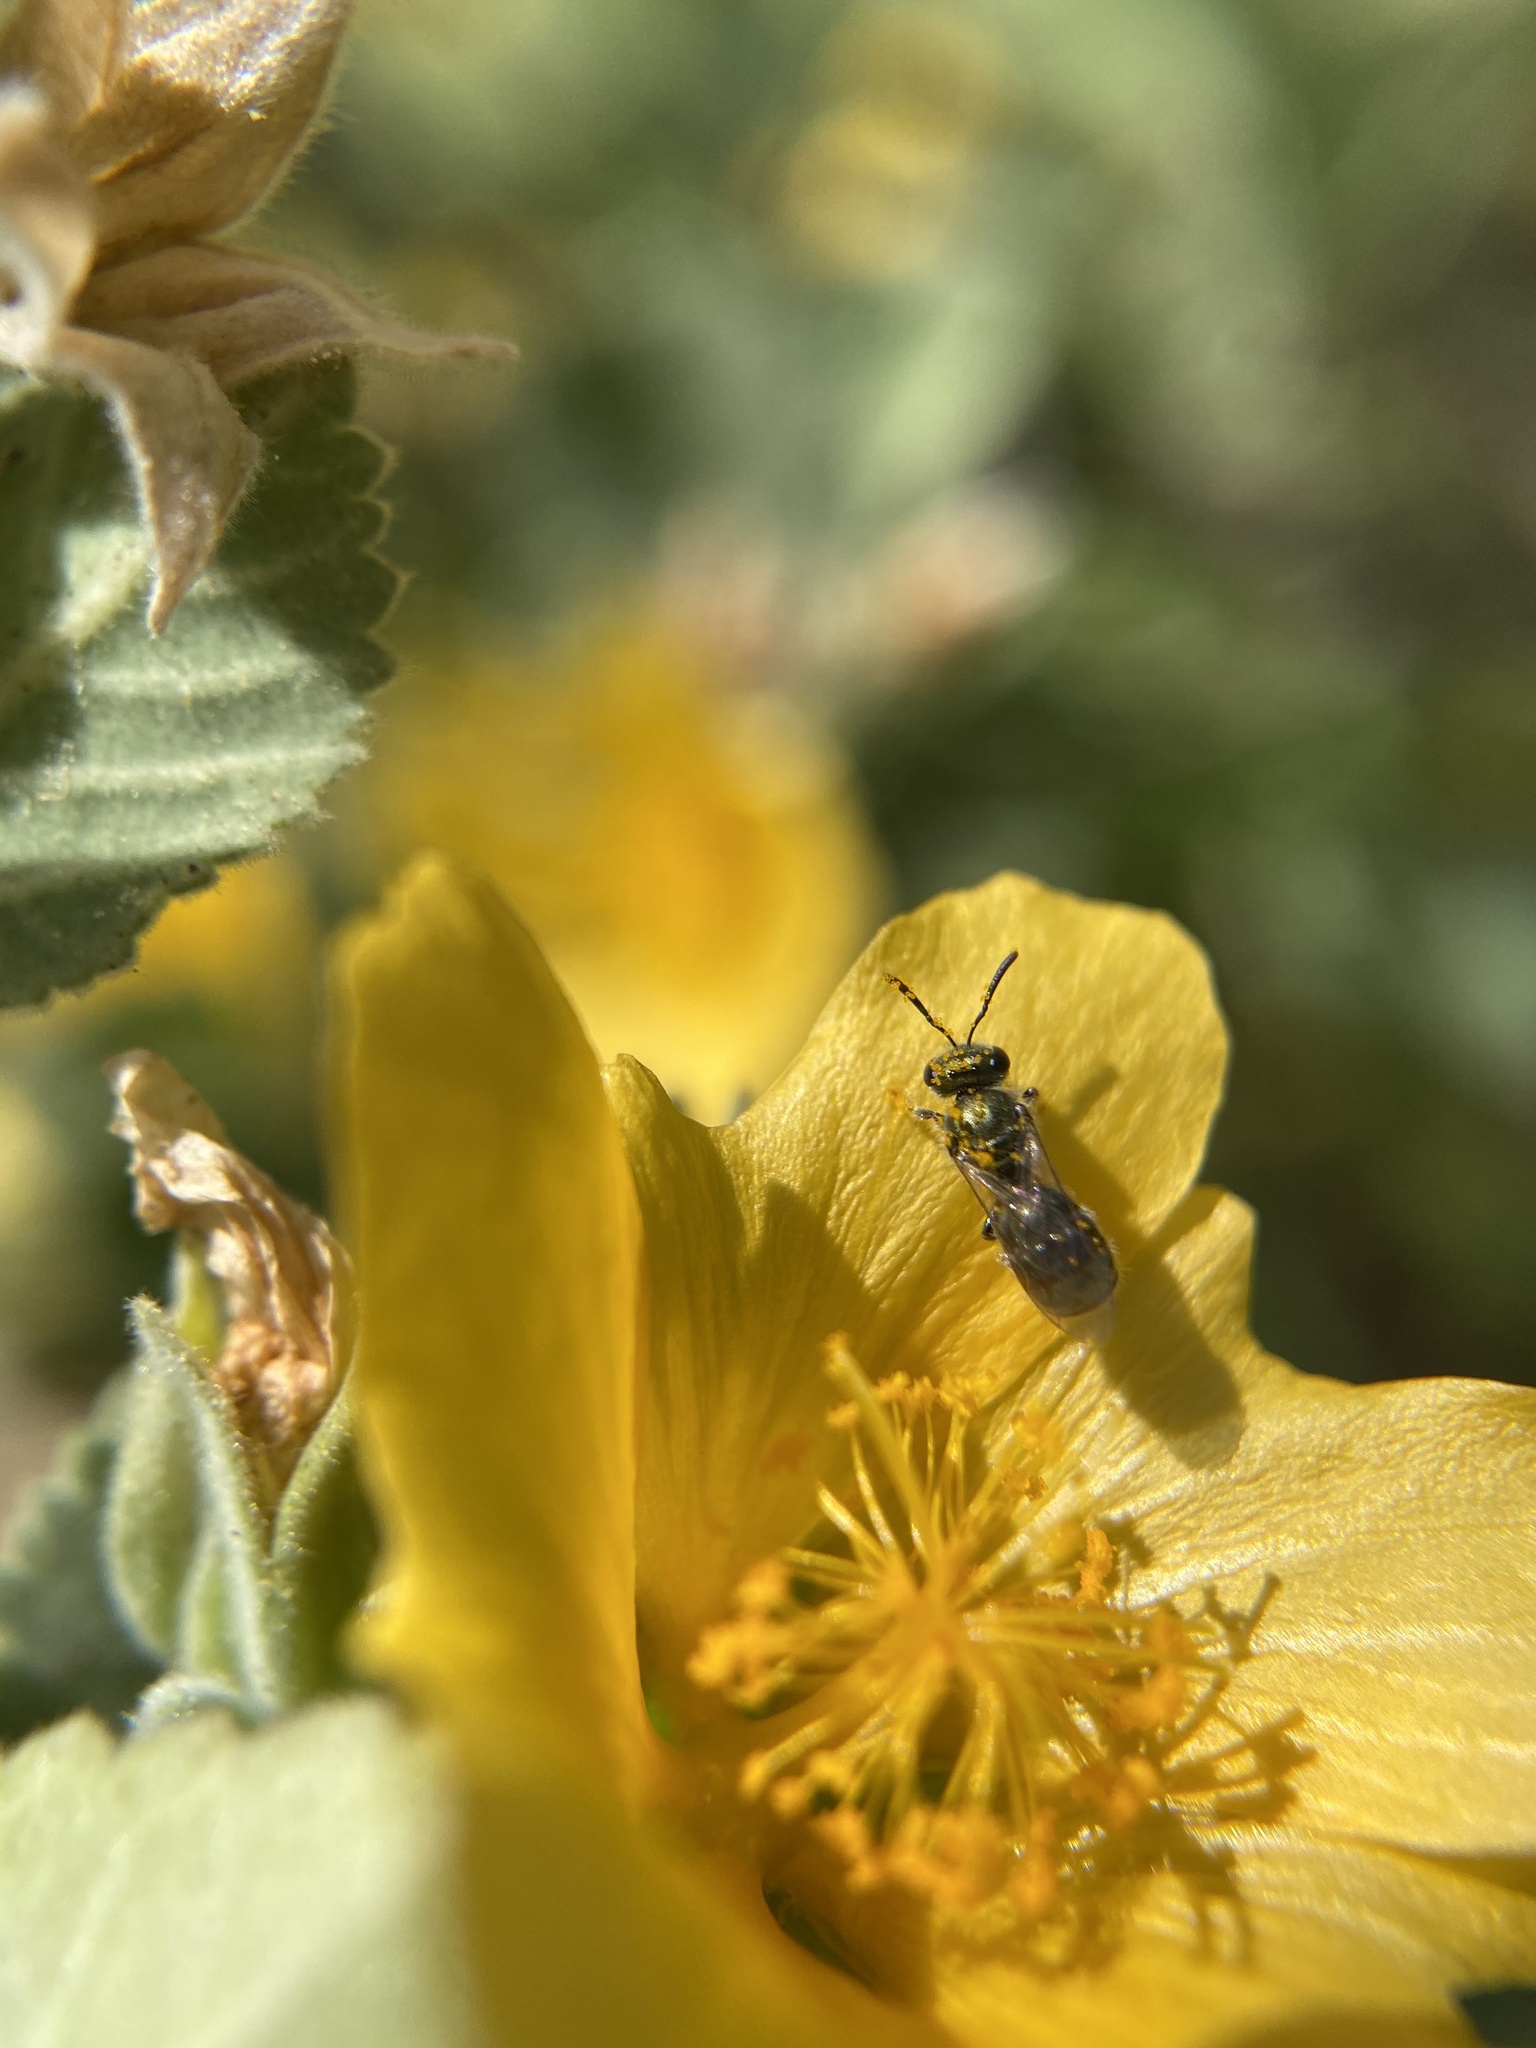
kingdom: Animalia
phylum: Arthropoda
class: Insecta
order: Hymenoptera
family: Halictidae
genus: Dialictus
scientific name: Dialictus
